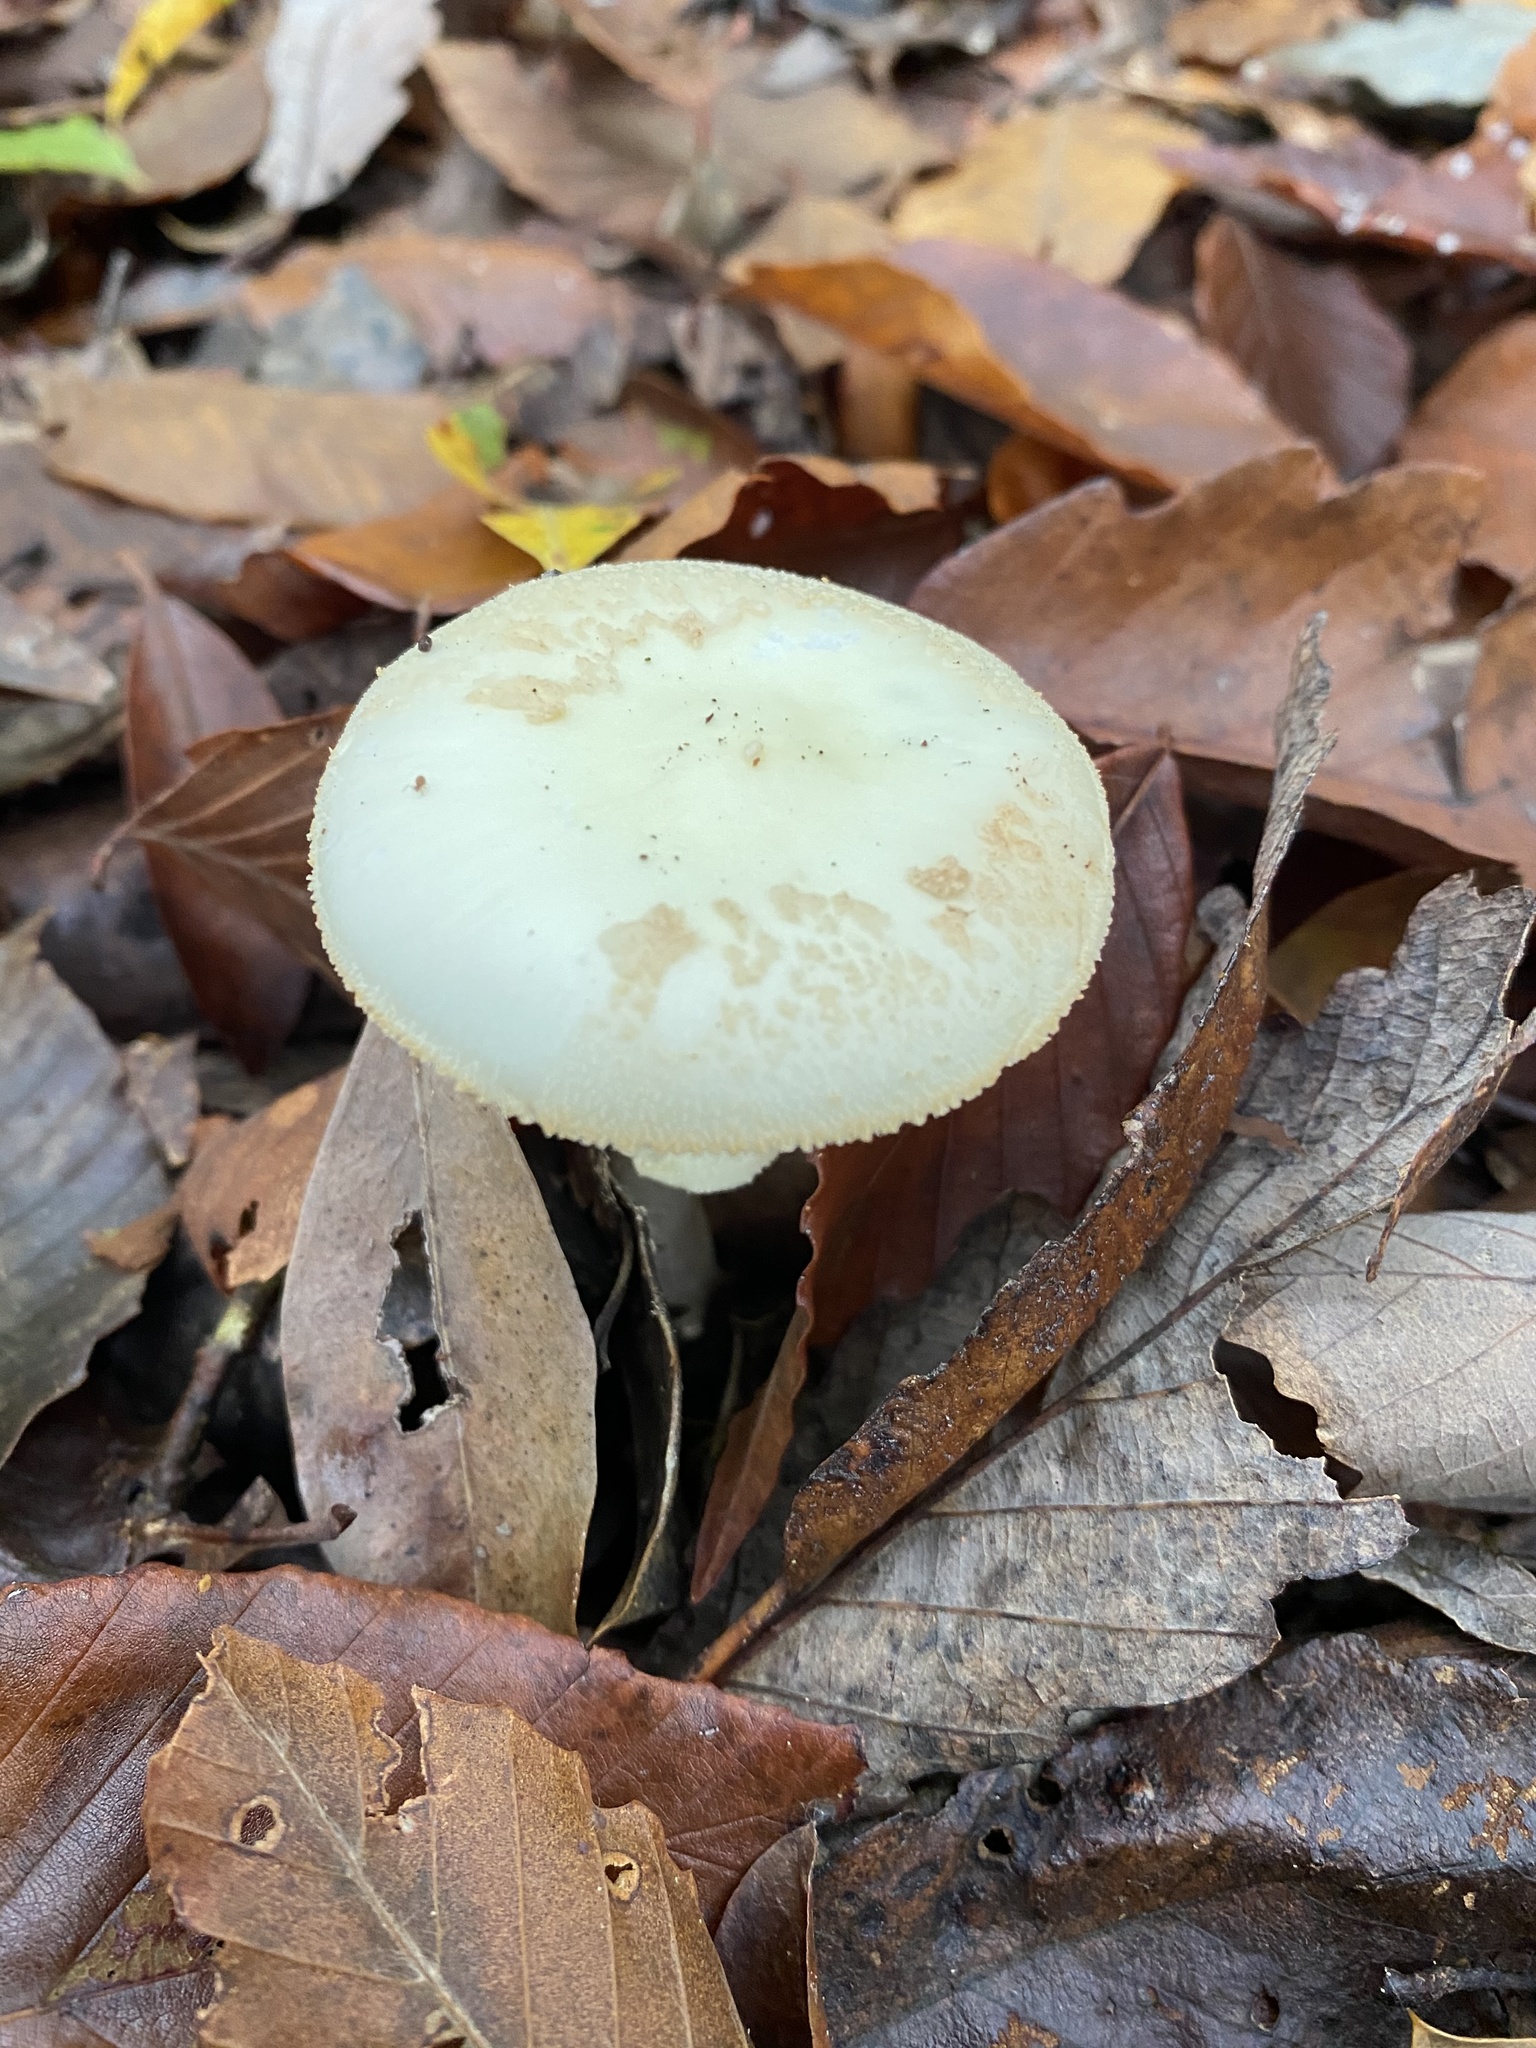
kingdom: Fungi
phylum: Basidiomycota
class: Agaricomycetes
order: Agaricales
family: Amanitaceae
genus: Amanita
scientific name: Amanita lavendula
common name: Coker's lavender staining amanita
